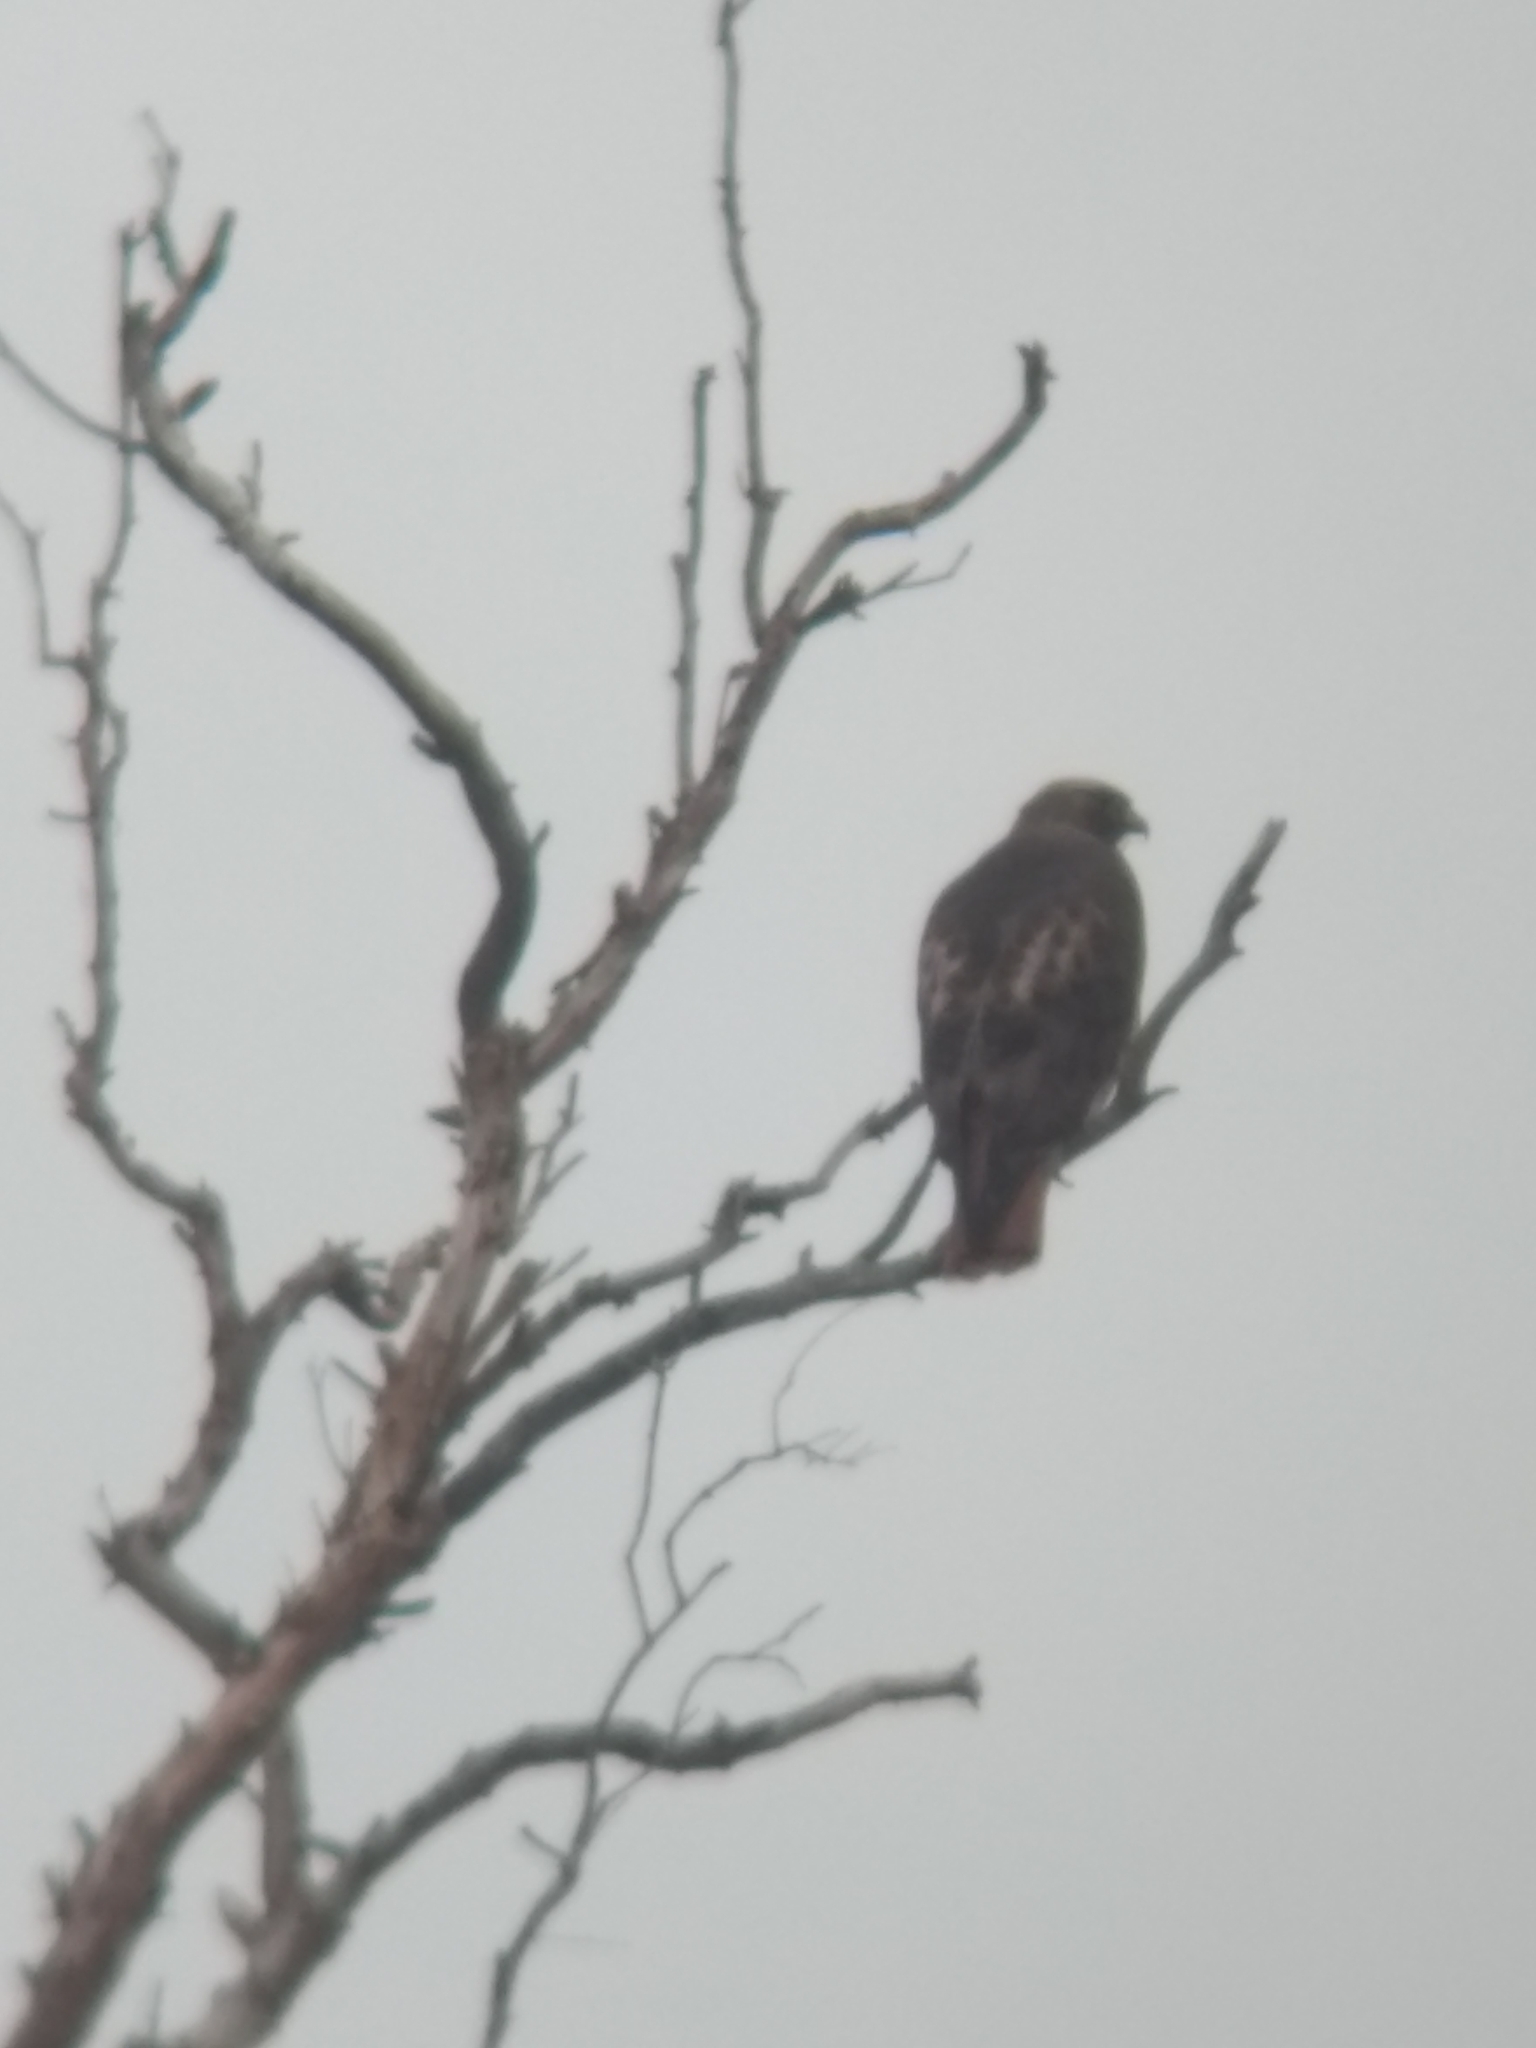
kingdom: Animalia
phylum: Chordata
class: Aves
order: Accipitriformes
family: Accipitridae
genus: Buteo
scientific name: Buteo jamaicensis
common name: Red-tailed hawk
